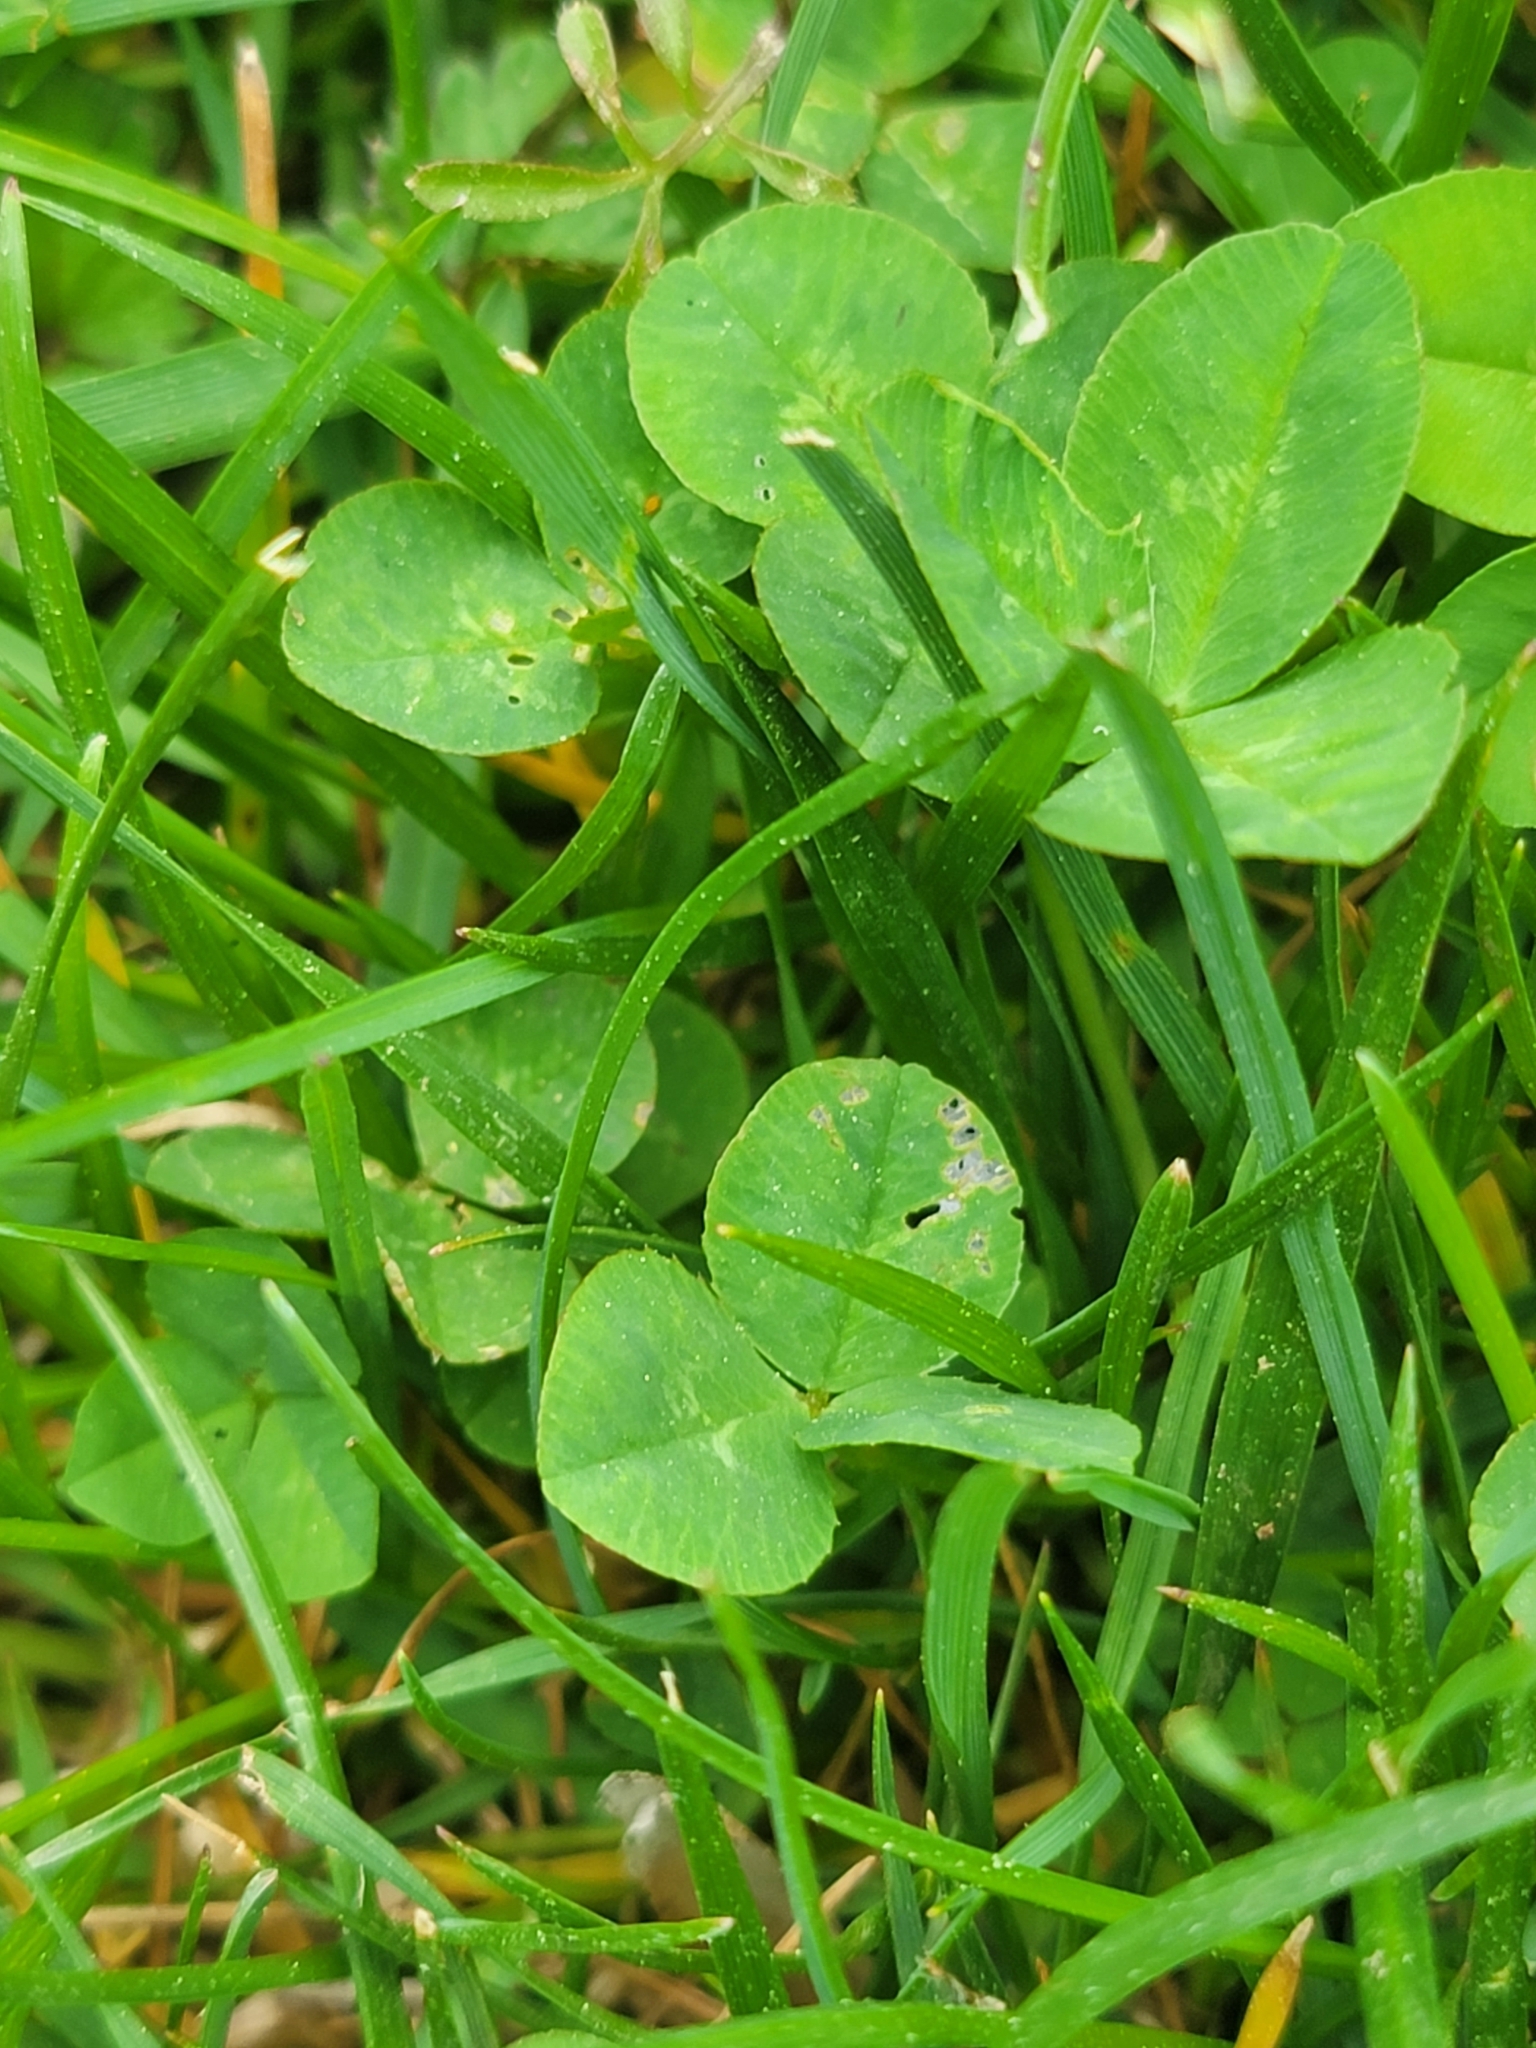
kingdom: Plantae
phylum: Tracheophyta
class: Magnoliopsida
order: Fabales
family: Fabaceae
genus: Trifolium
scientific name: Trifolium repens
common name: White clover
